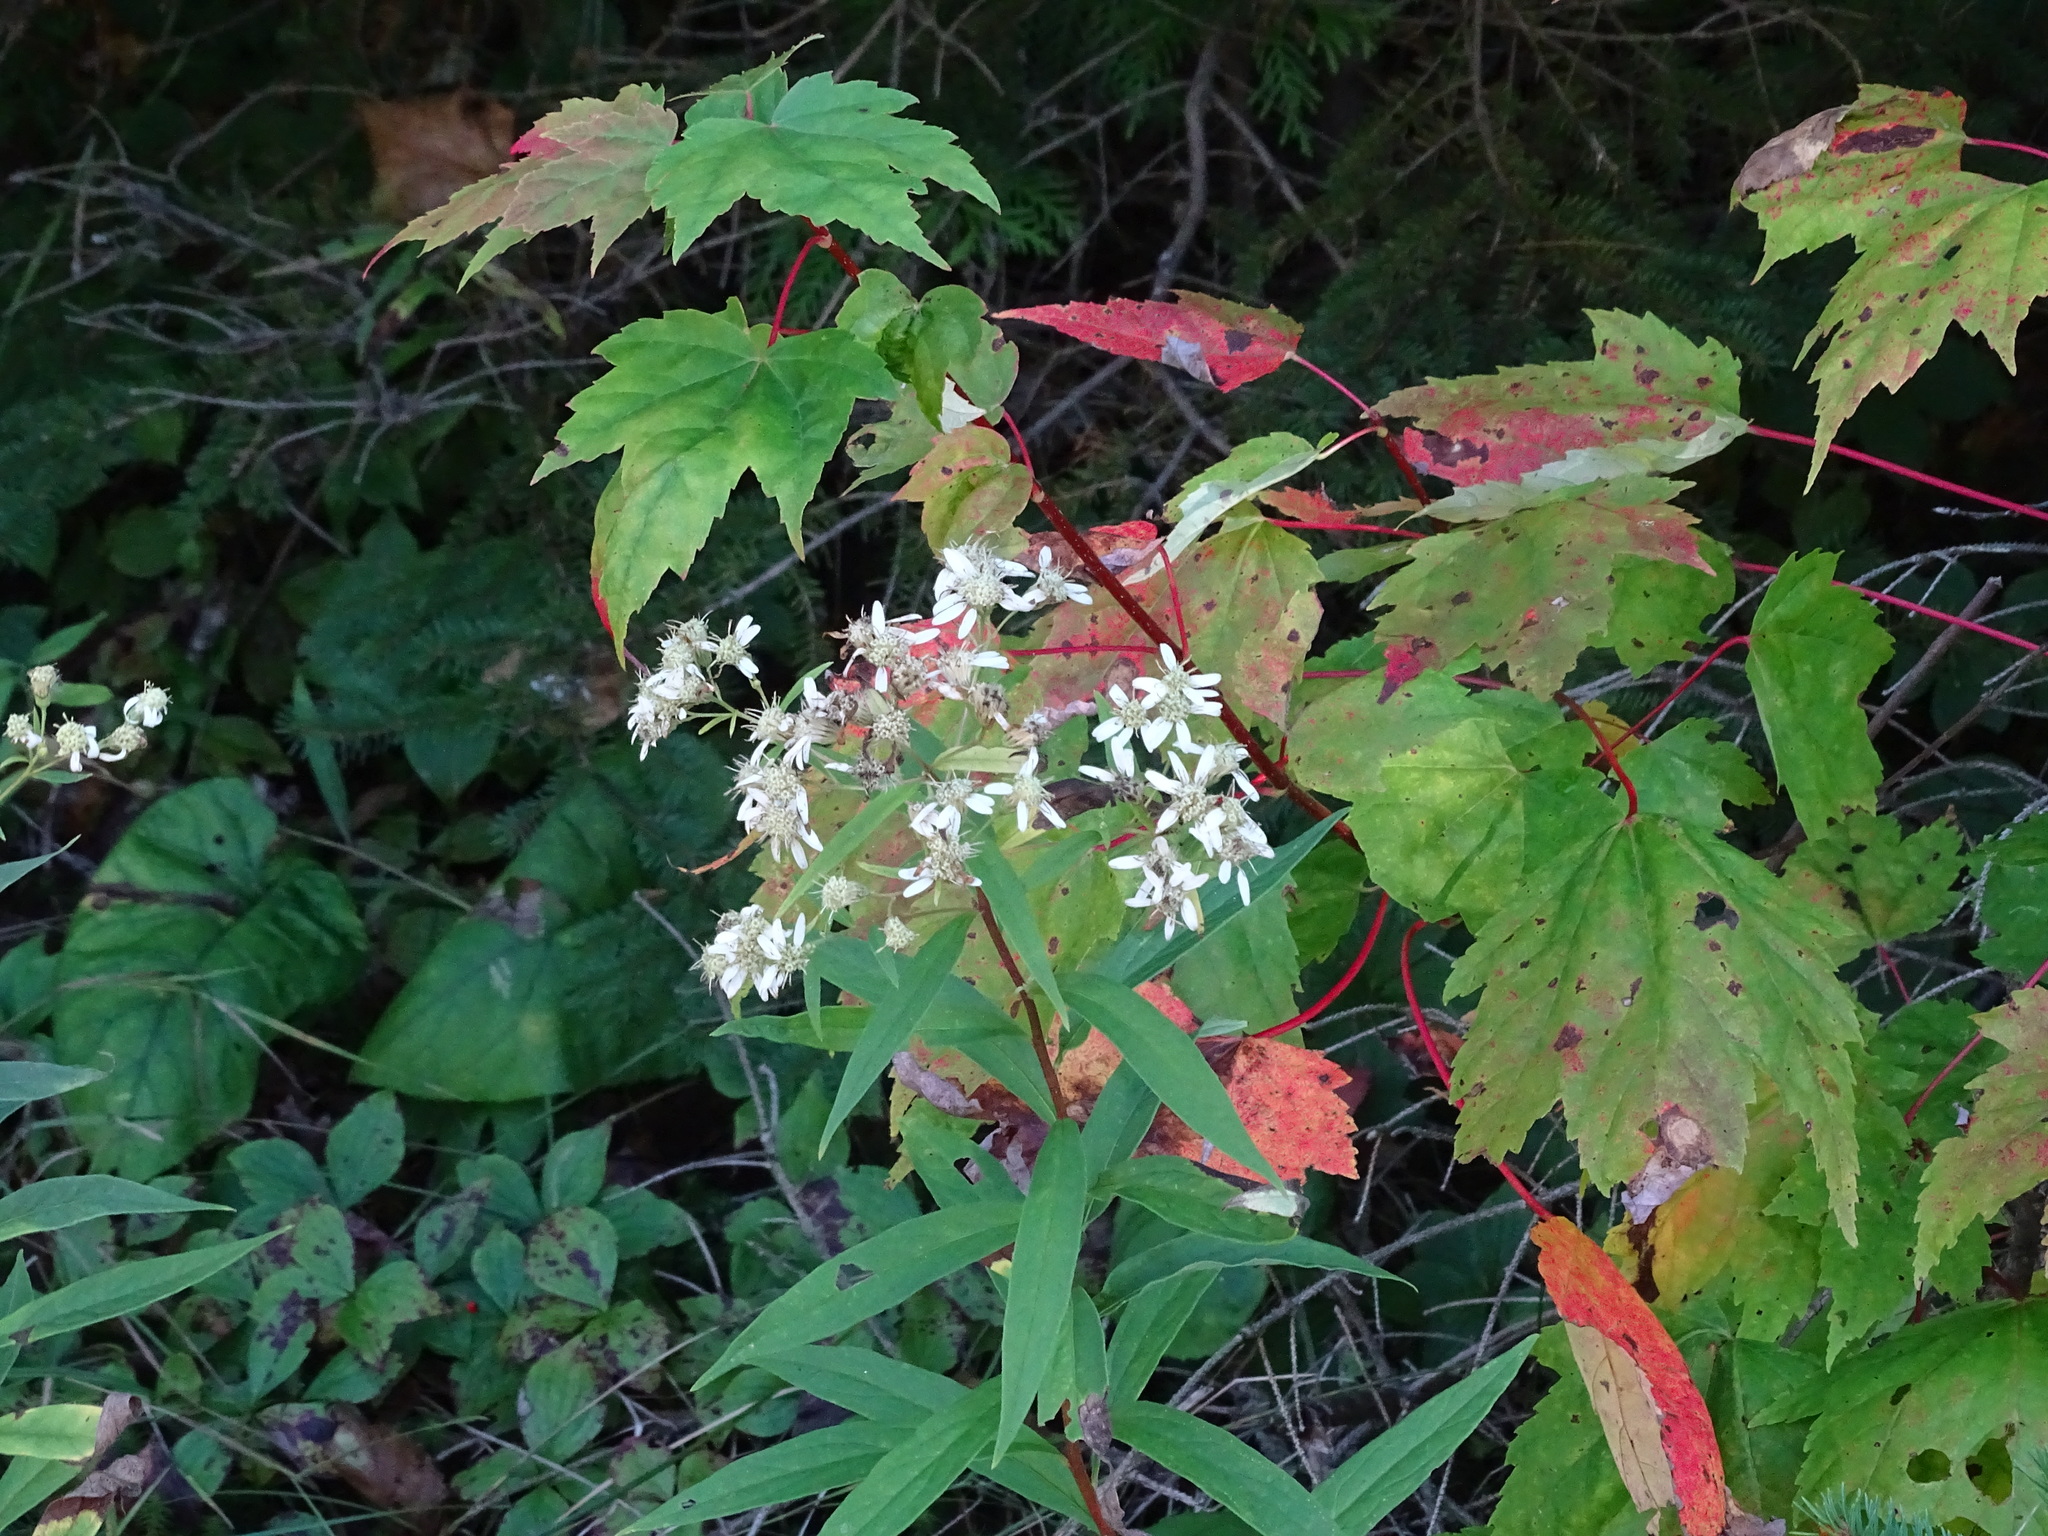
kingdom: Plantae
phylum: Tracheophyta
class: Magnoliopsida
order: Asterales
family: Asteraceae
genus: Doellingeria
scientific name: Doellingeria umbellata
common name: Flat-top white aster
